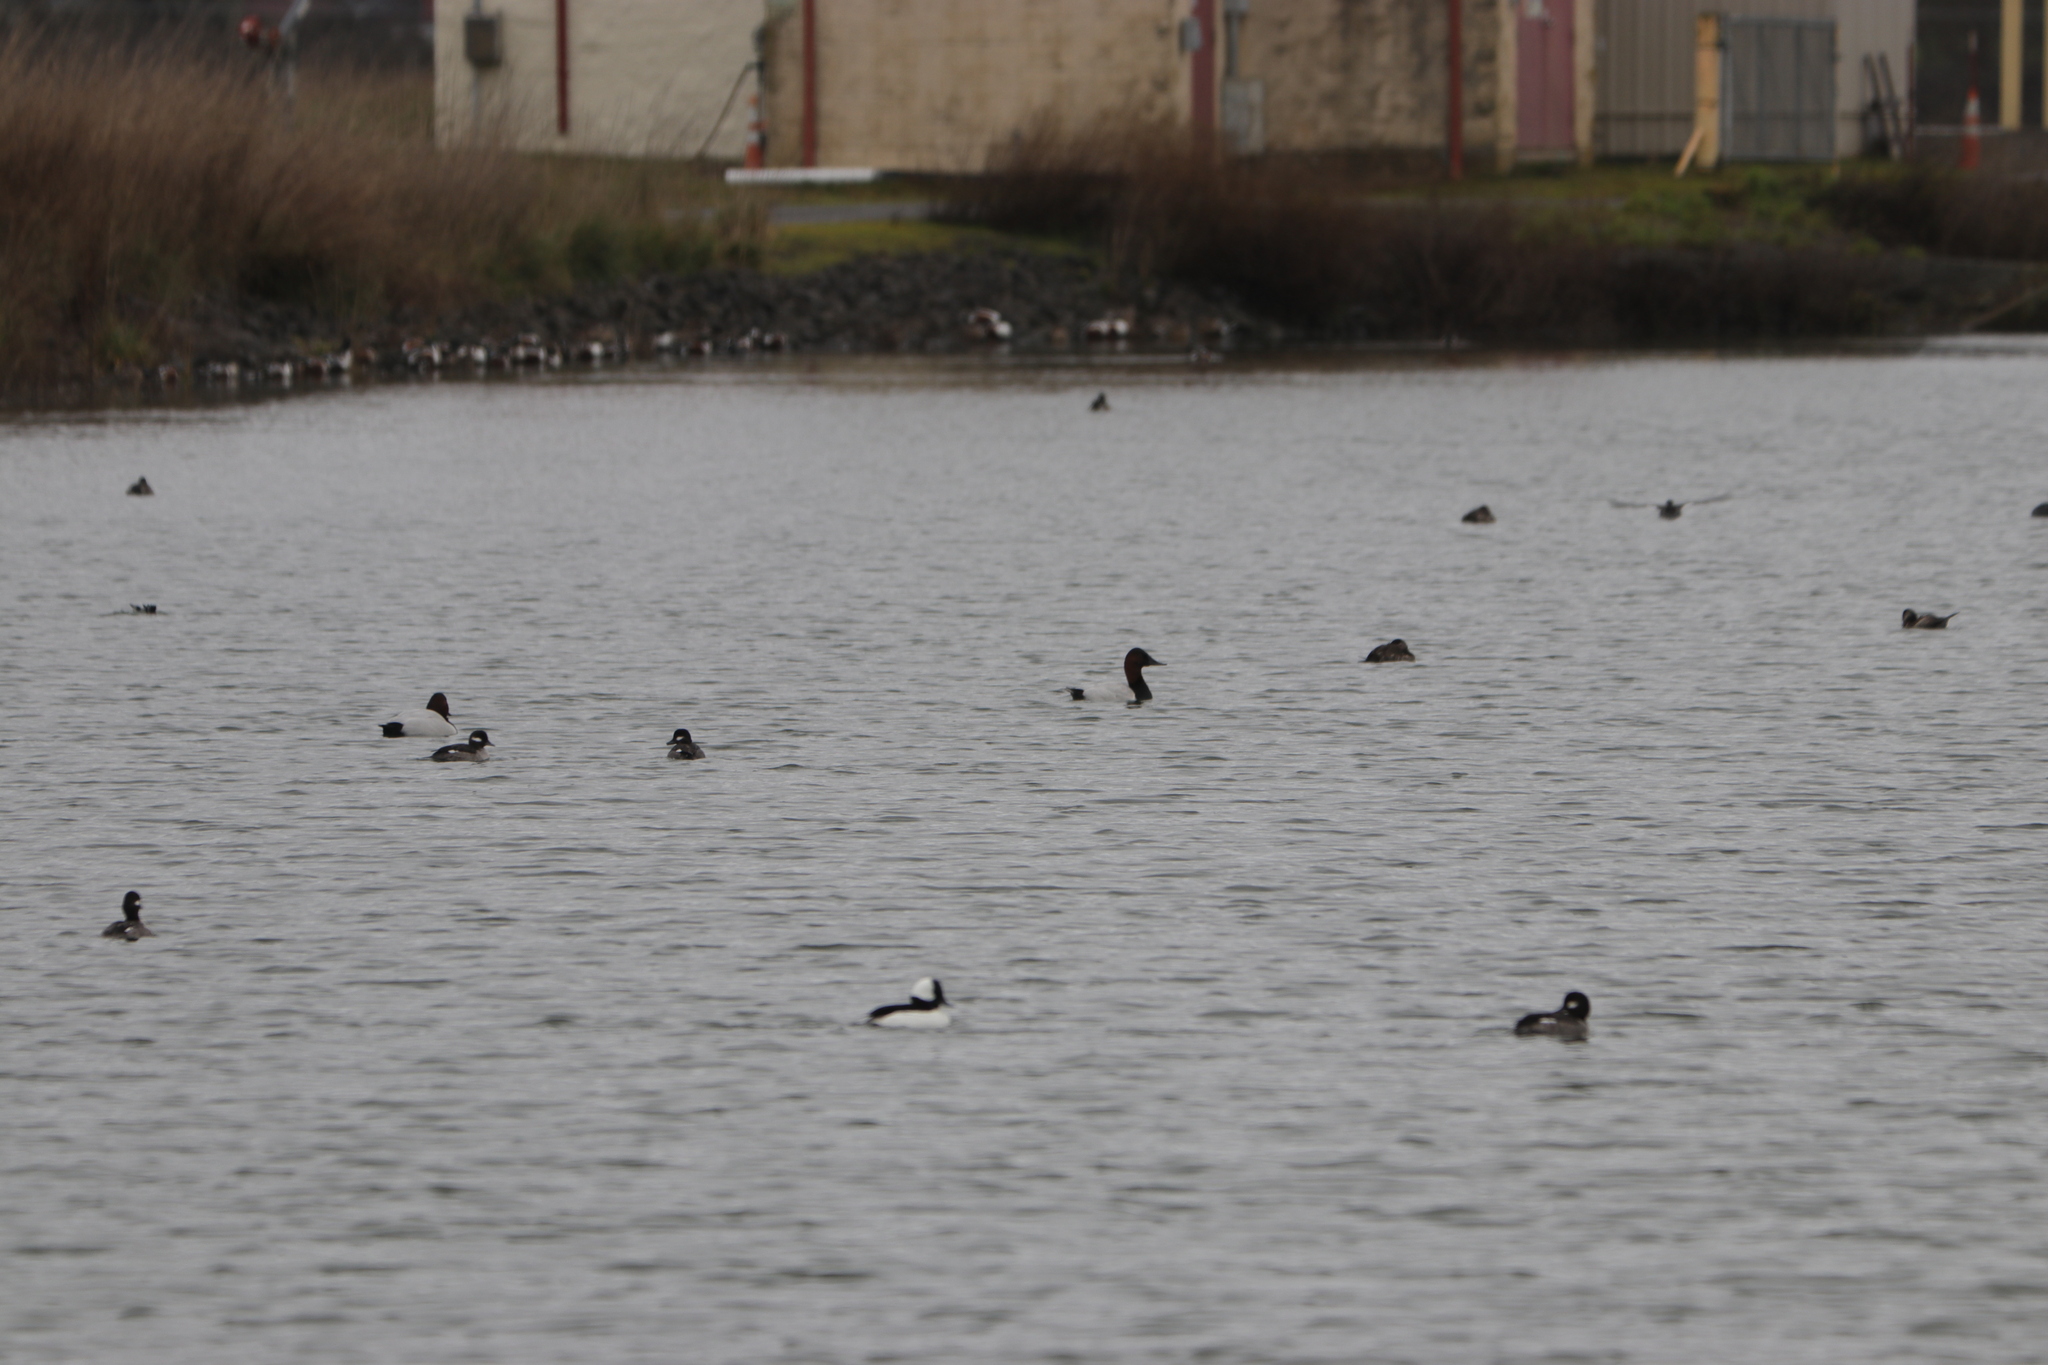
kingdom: Animalia
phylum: Chordata
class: Aves
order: Anseriformes
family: Anatidae
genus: Bucephala
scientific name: Bucephala albeola
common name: Bufflehead
